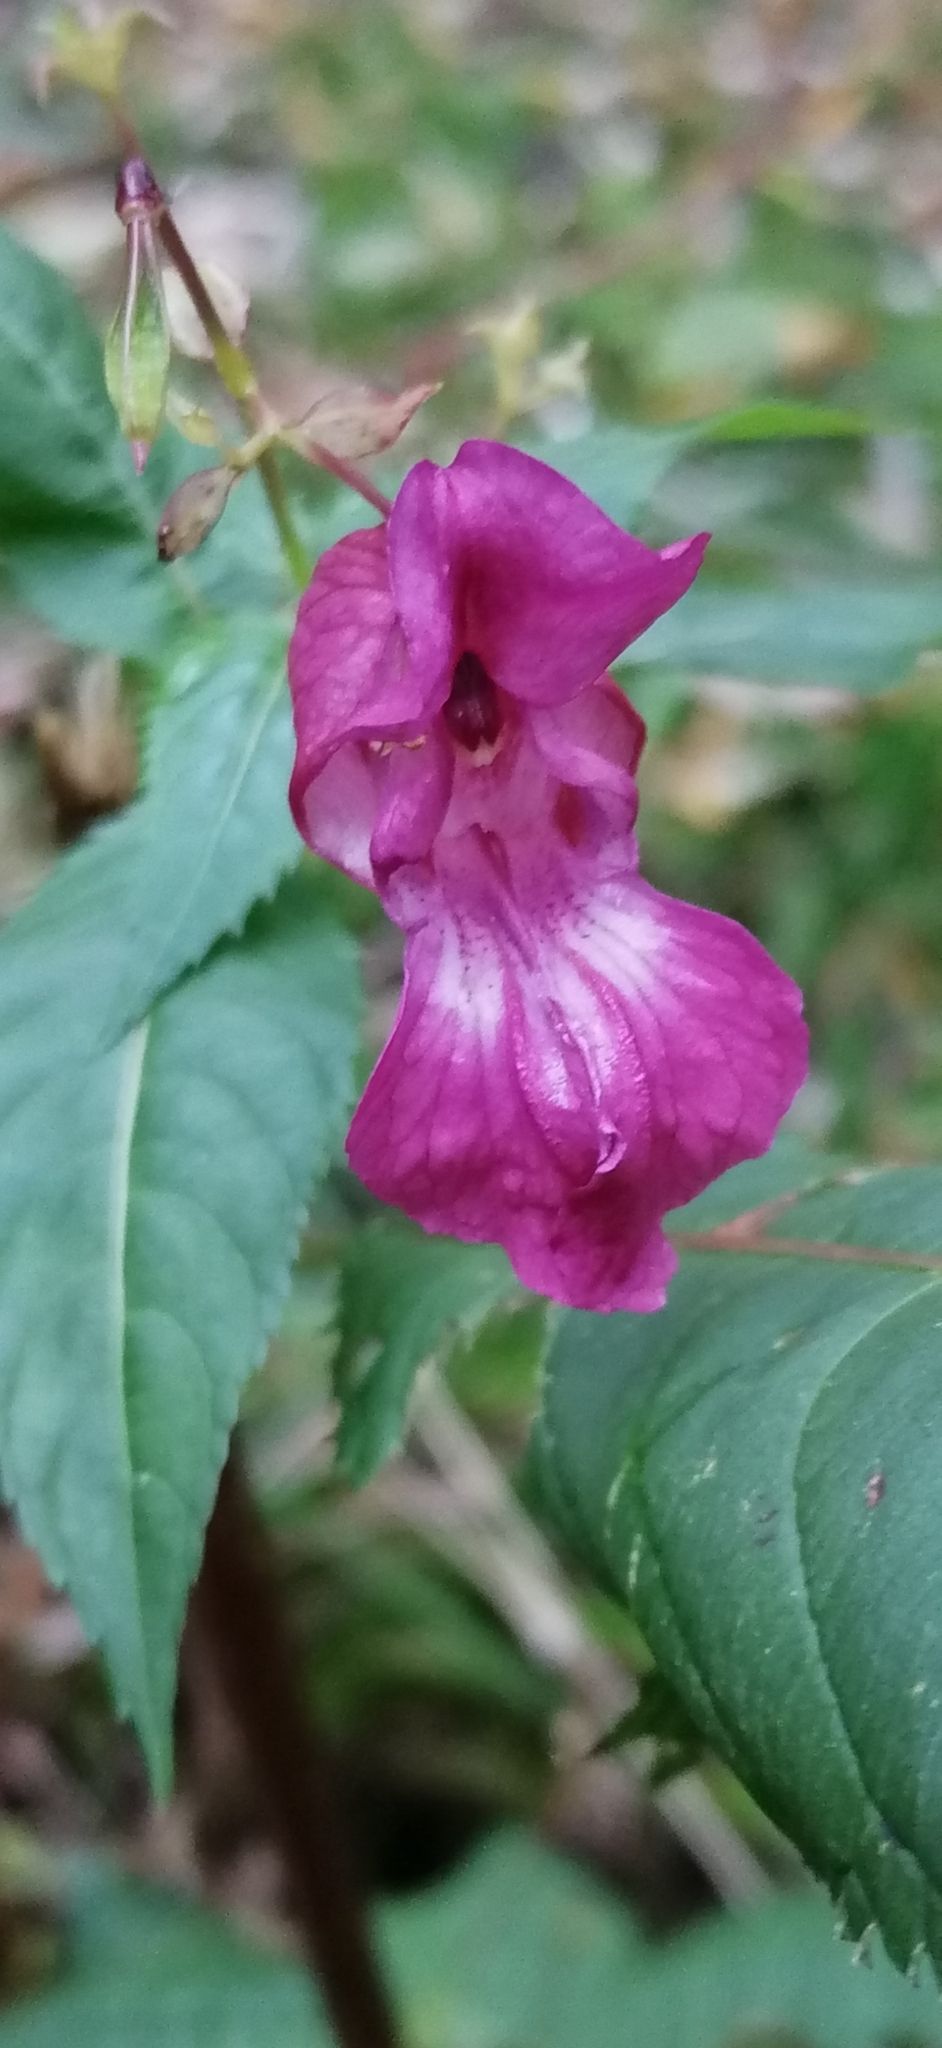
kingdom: Plantae
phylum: Tracheophyta
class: Magnoliopsida
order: Ericales
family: Balsaminaceae
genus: Impatiens
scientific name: Impatiens glandulifera
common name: Himalayan balsam
